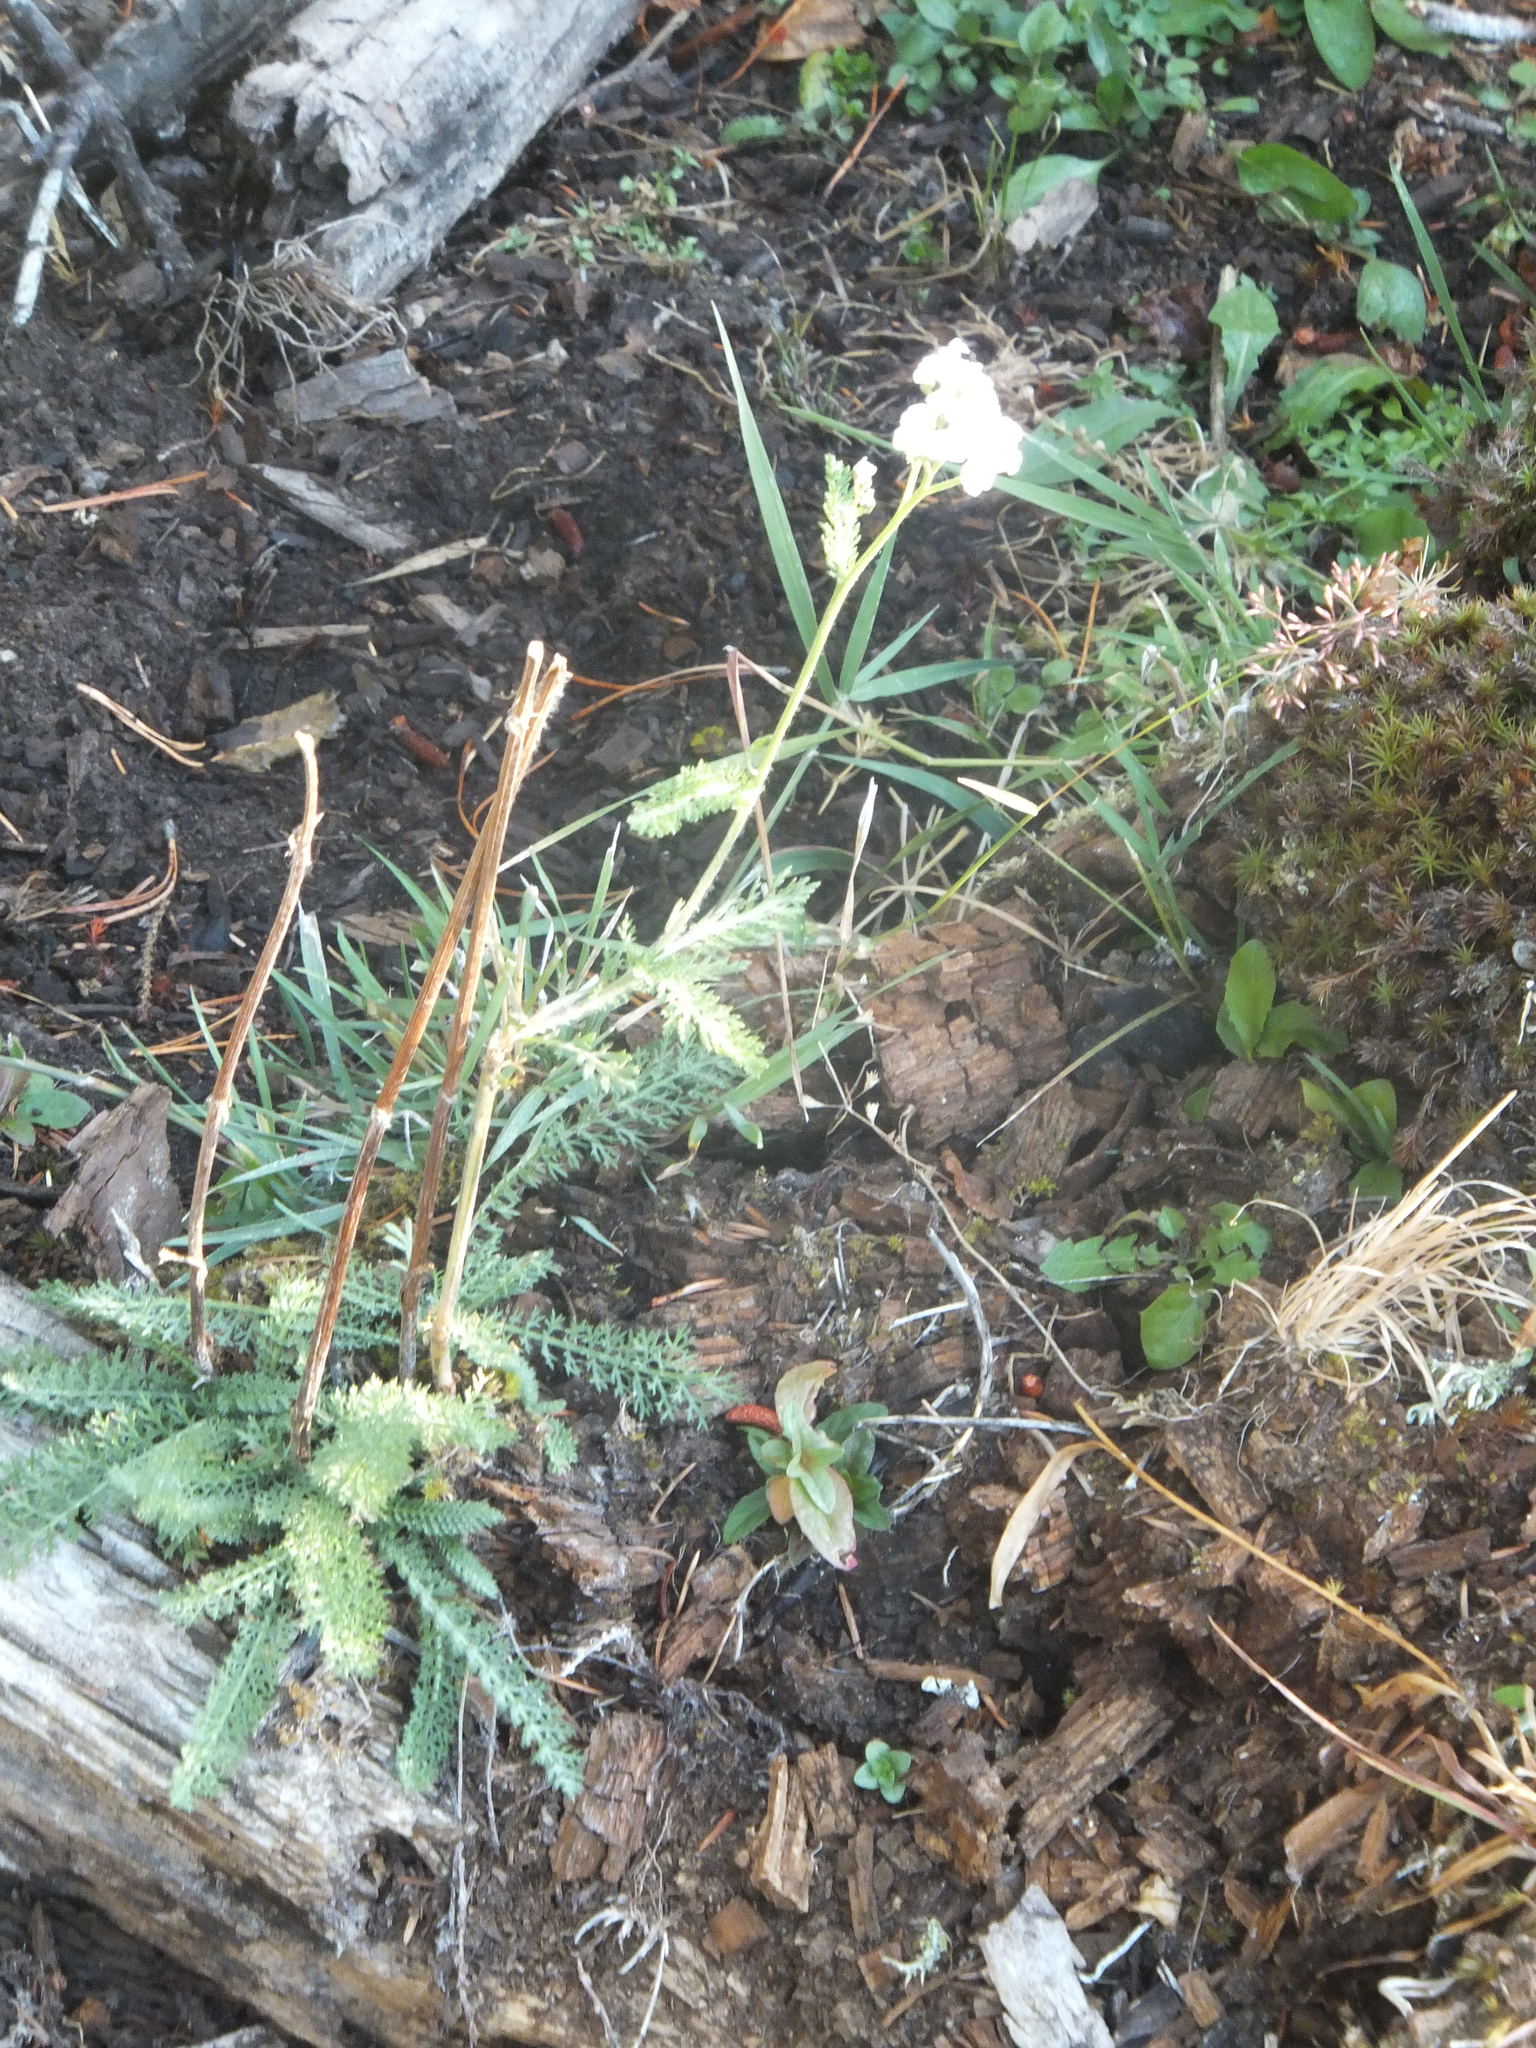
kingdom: Plantae
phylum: Tracheophyta
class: Magnoliopsida
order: Asterales
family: Asteraceae
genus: Achillea
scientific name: Achillea millefolium
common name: Yarrow
